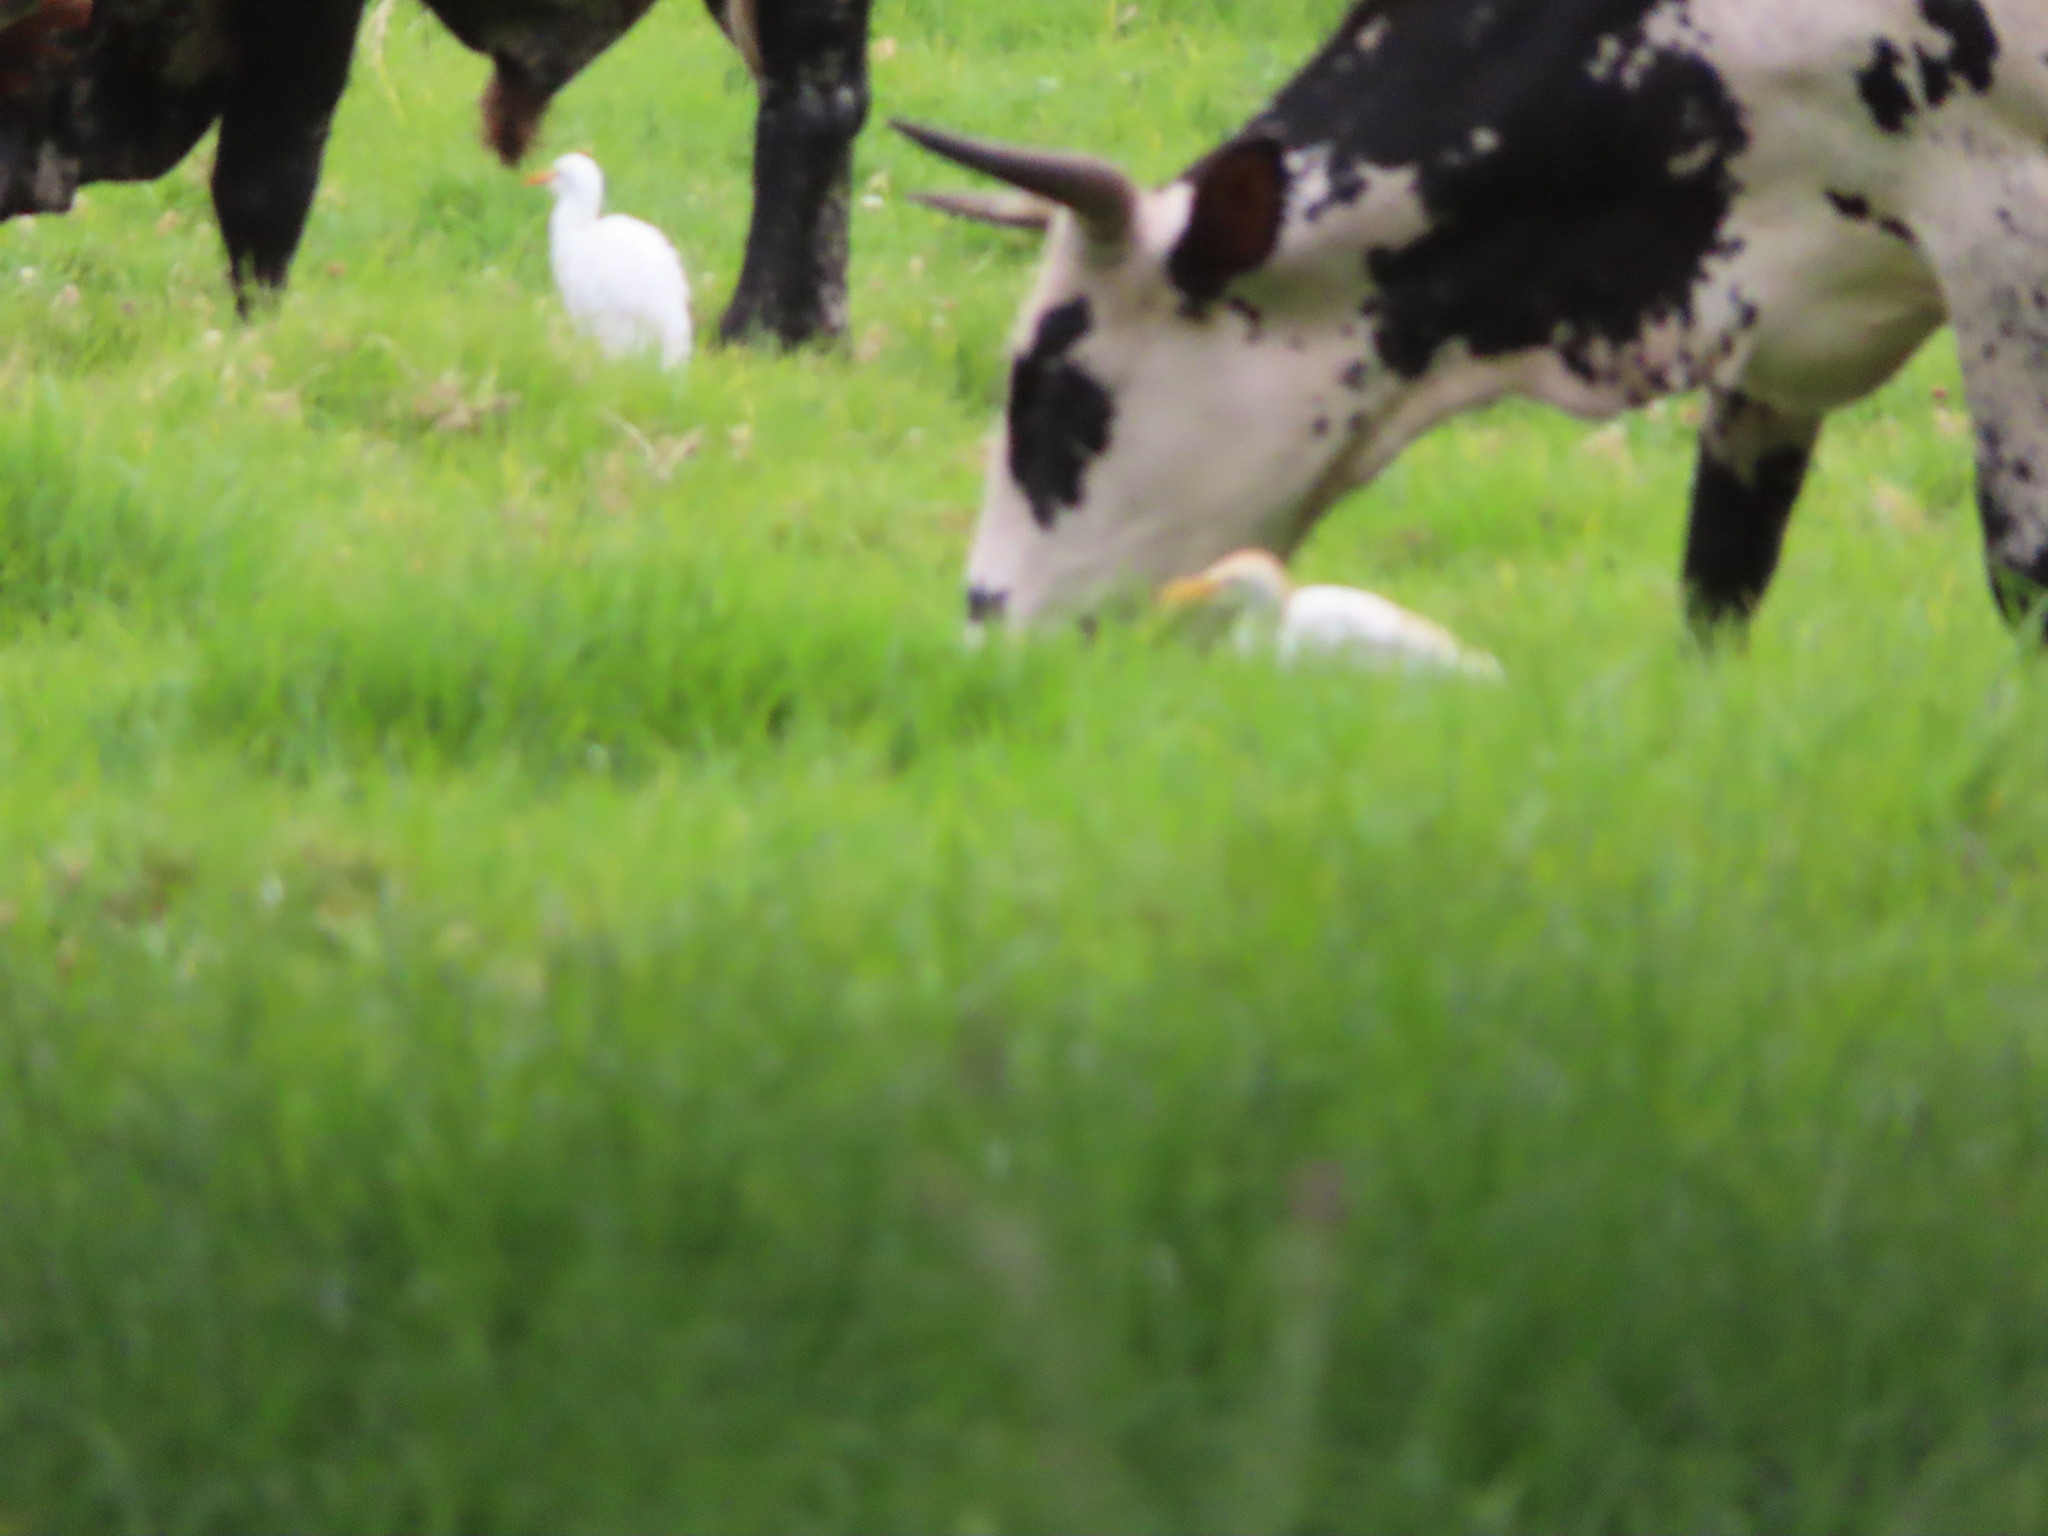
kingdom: Animalia
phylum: Chordata
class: Aves
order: Pelecaniformes
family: Ardeidae
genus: Bubulcus
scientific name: Bubulcus ibis
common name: Cattle egret
